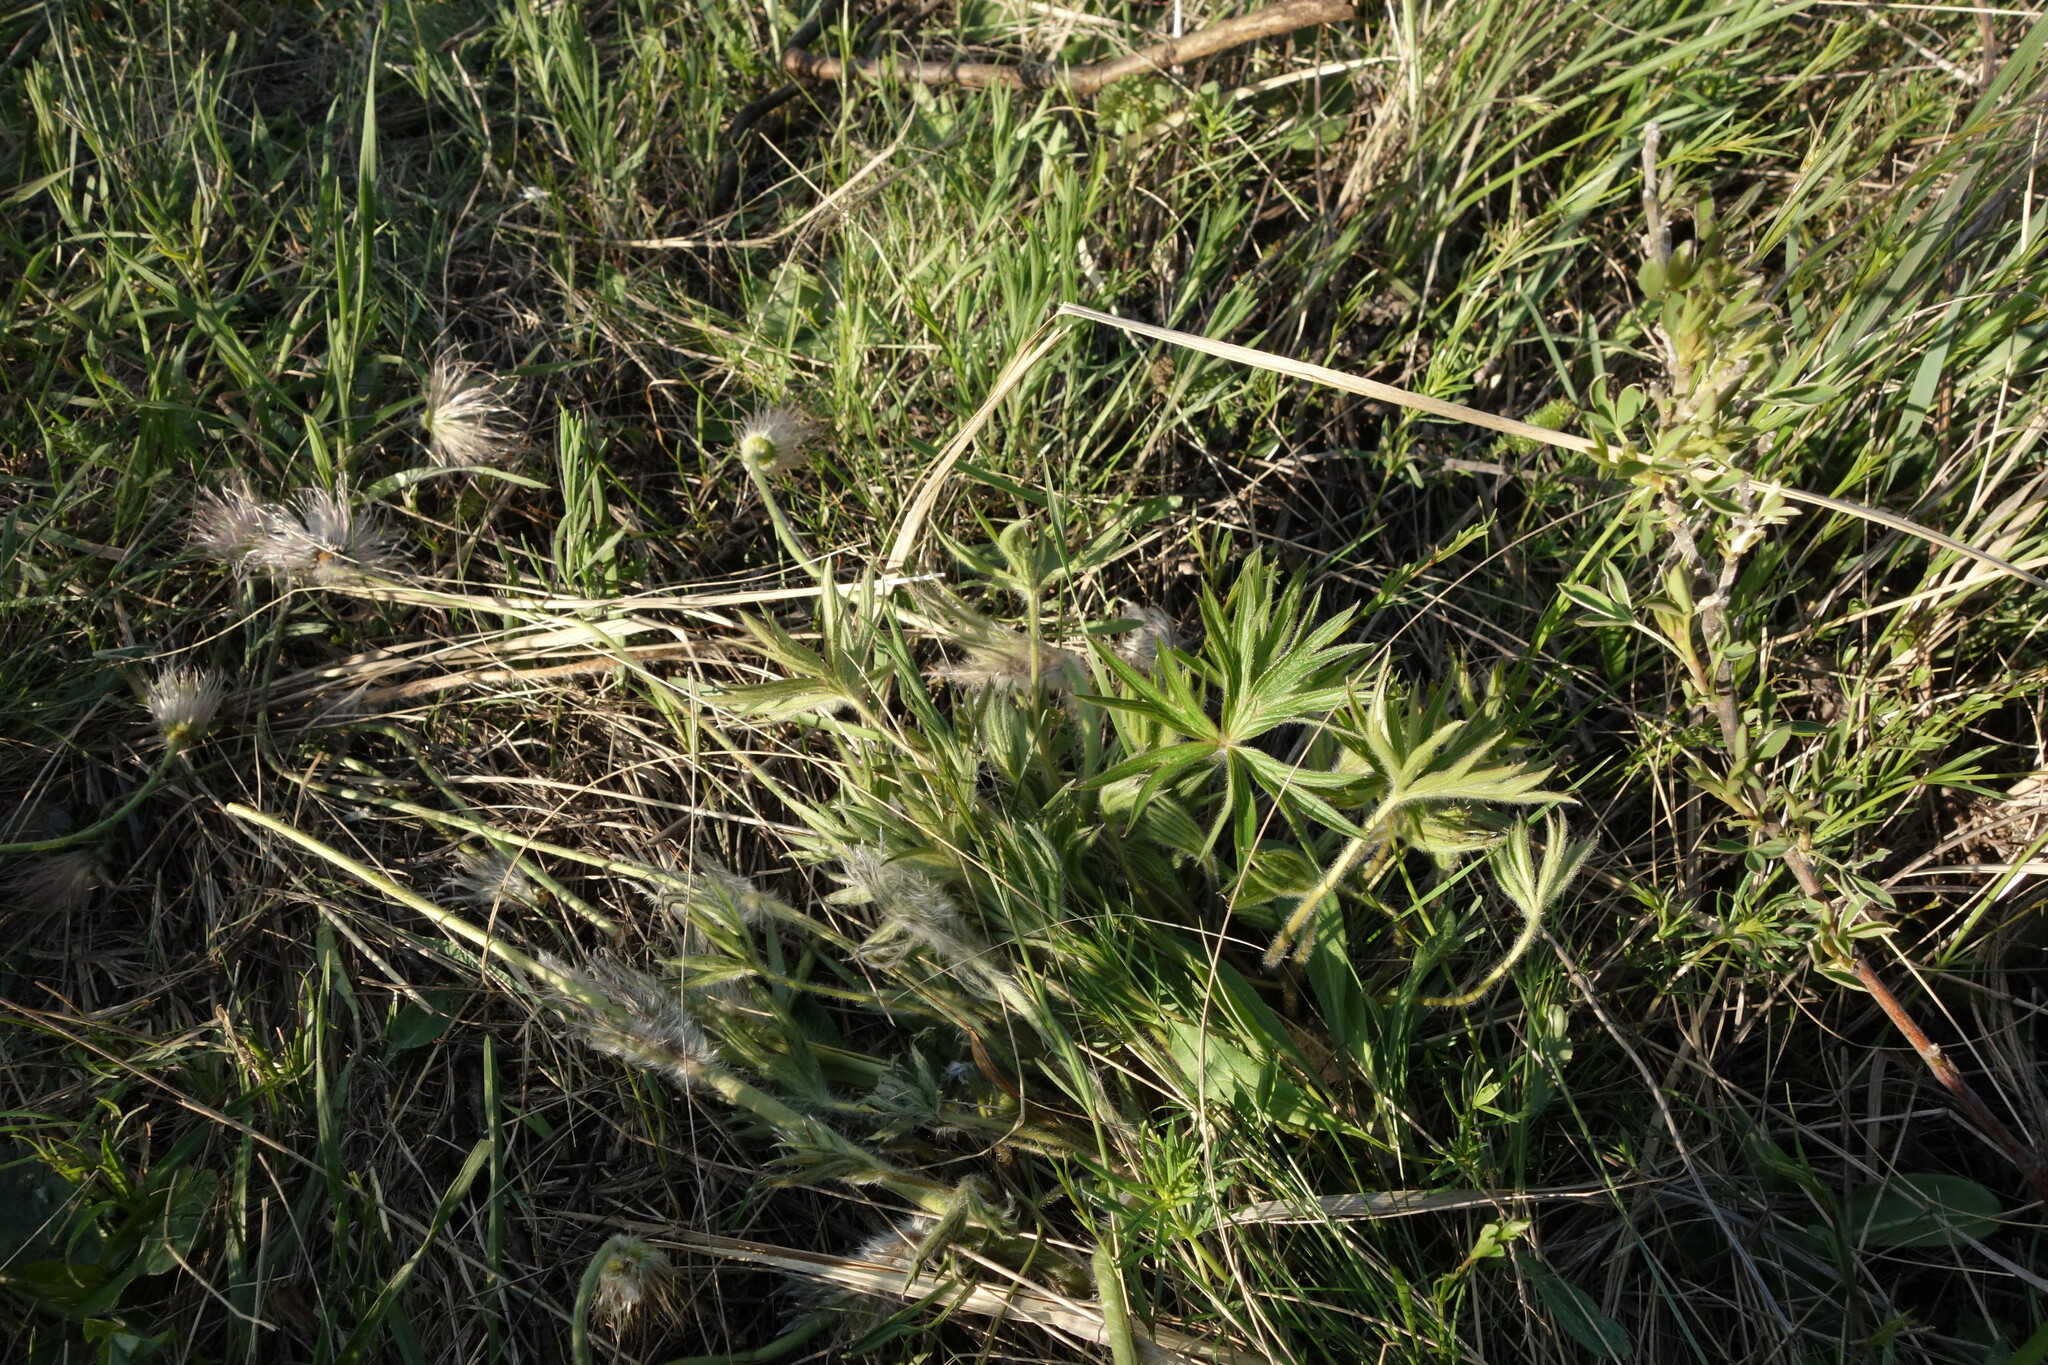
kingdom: Plantae
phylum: Tracheophyta
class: Magnoliopsida
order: Ranunculales
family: Ranunculaceae
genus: Pulsatilla
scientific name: Pulsatilla patens
